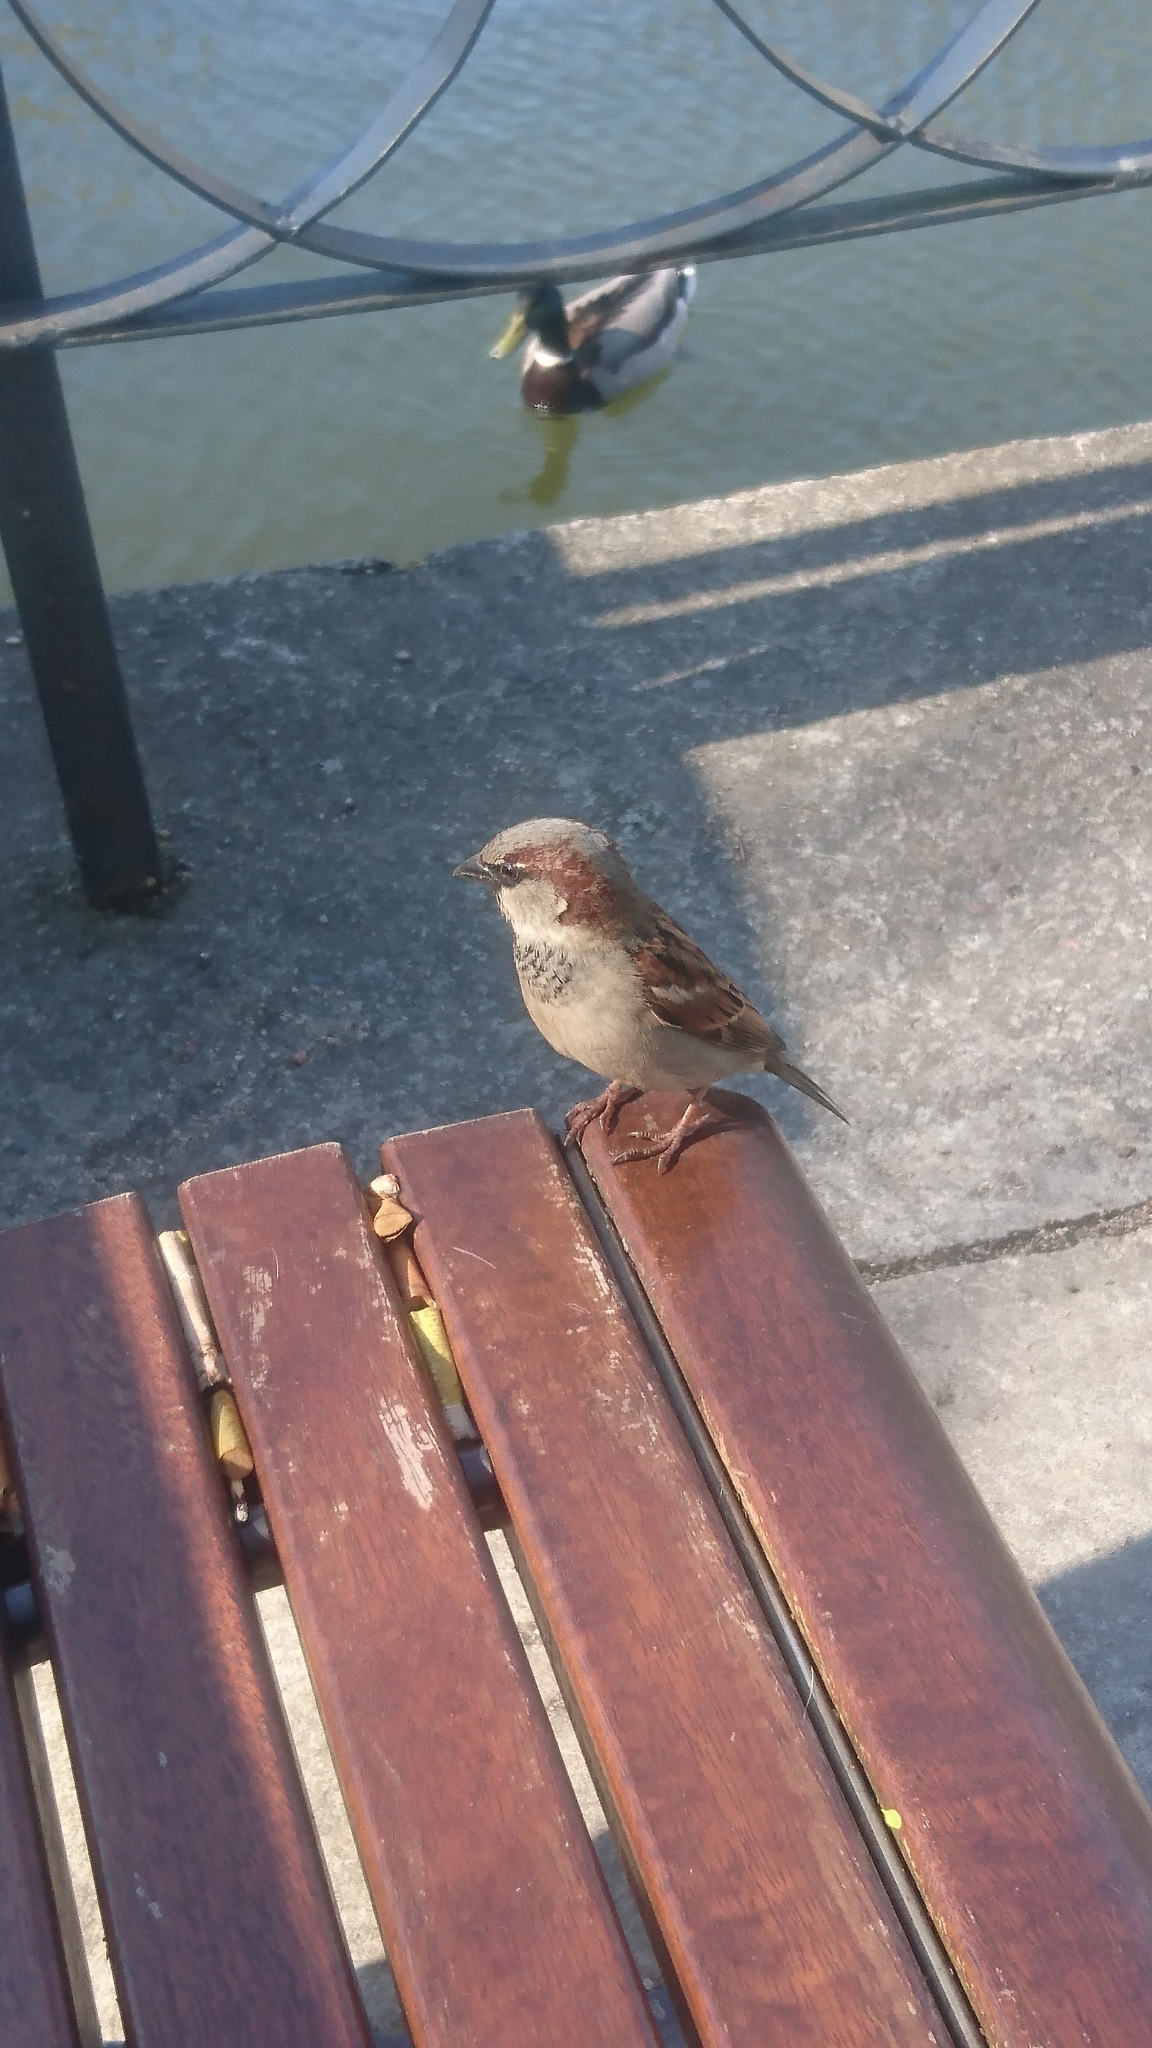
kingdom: Animalia
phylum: Chordata
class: Aves
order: Passeriformes
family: Passeridae
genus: Passer
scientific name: Passer domesticus
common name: House sparrow
